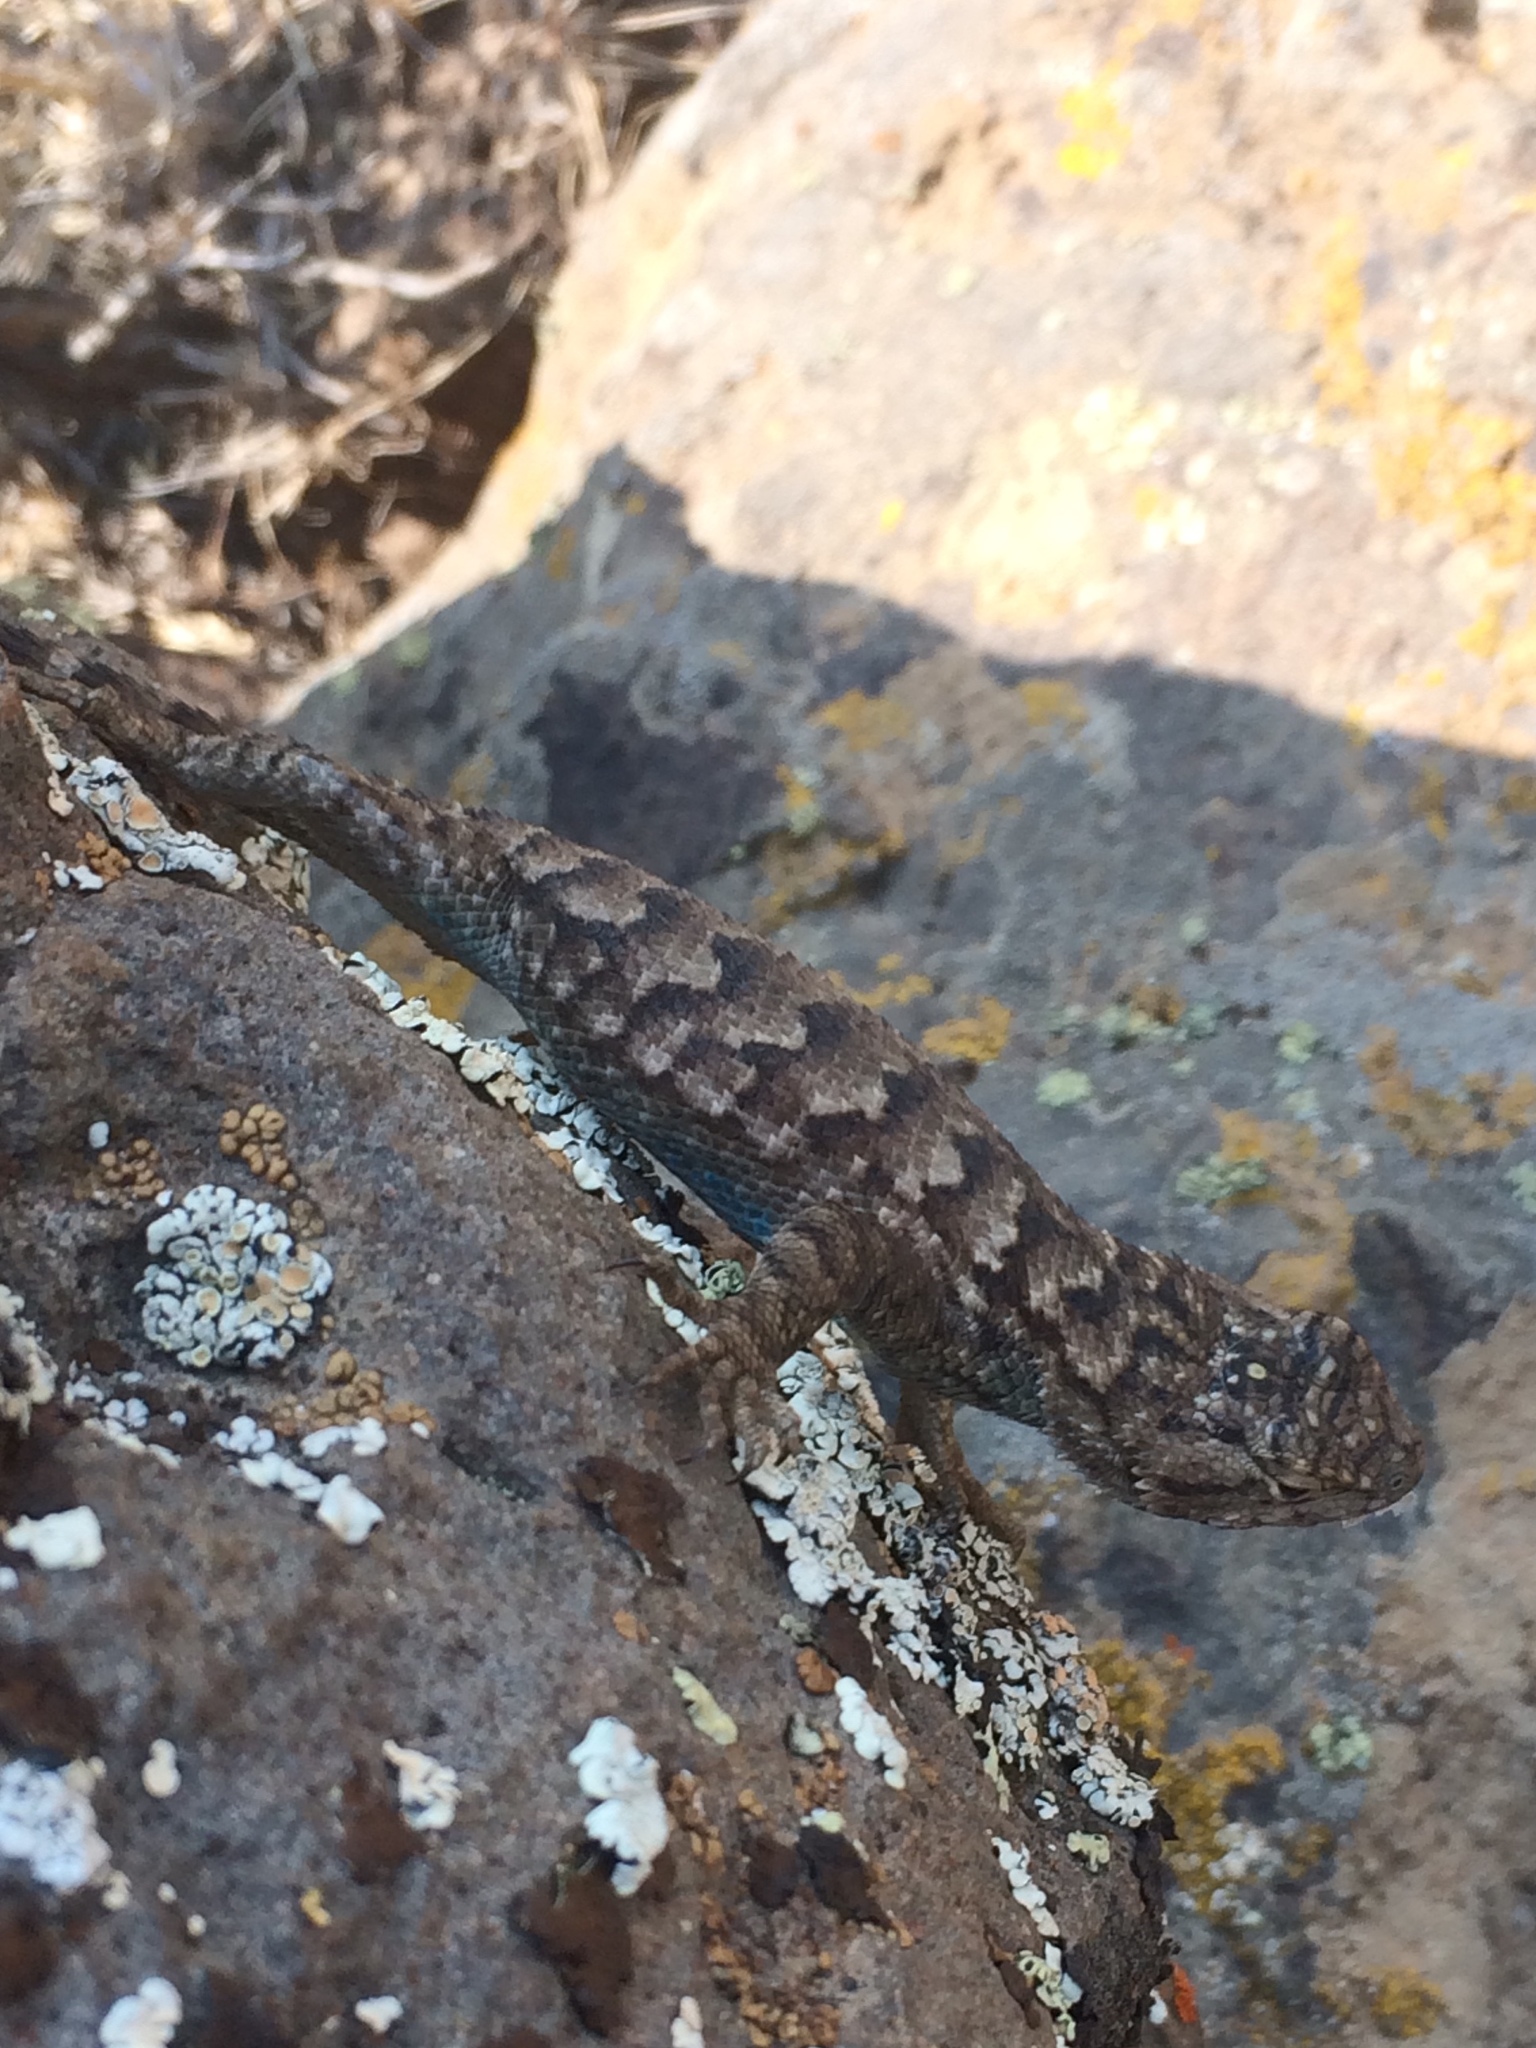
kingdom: Animalia
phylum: Chordata
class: Squamata
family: Phrynosomatidae
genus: Sceloporus
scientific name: Sceloporus occidentalis
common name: Western fence lizard
